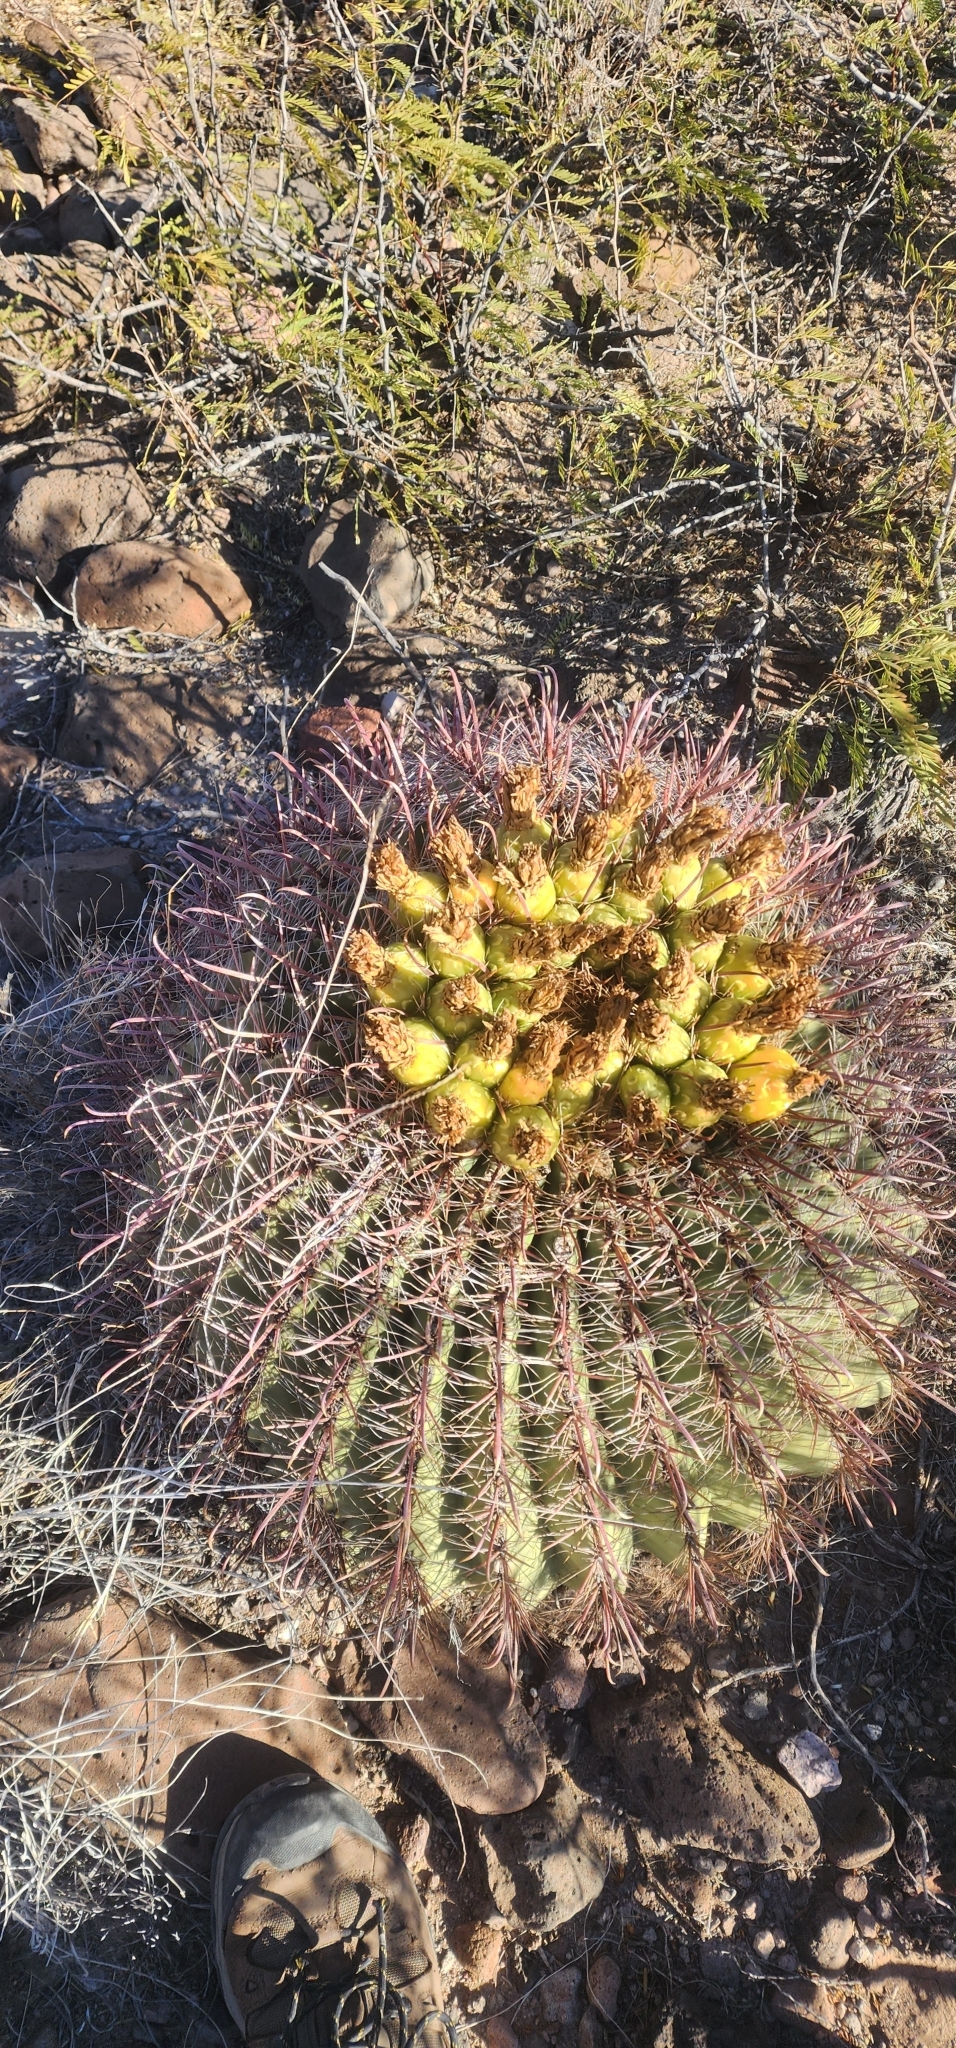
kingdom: Plantae
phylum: Tracheophyta
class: Magnoliopsida
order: Caryophyllales
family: Cactaceae
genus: Ferocactus
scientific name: Ferocactus wislizeni
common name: Candy barrel cactus
